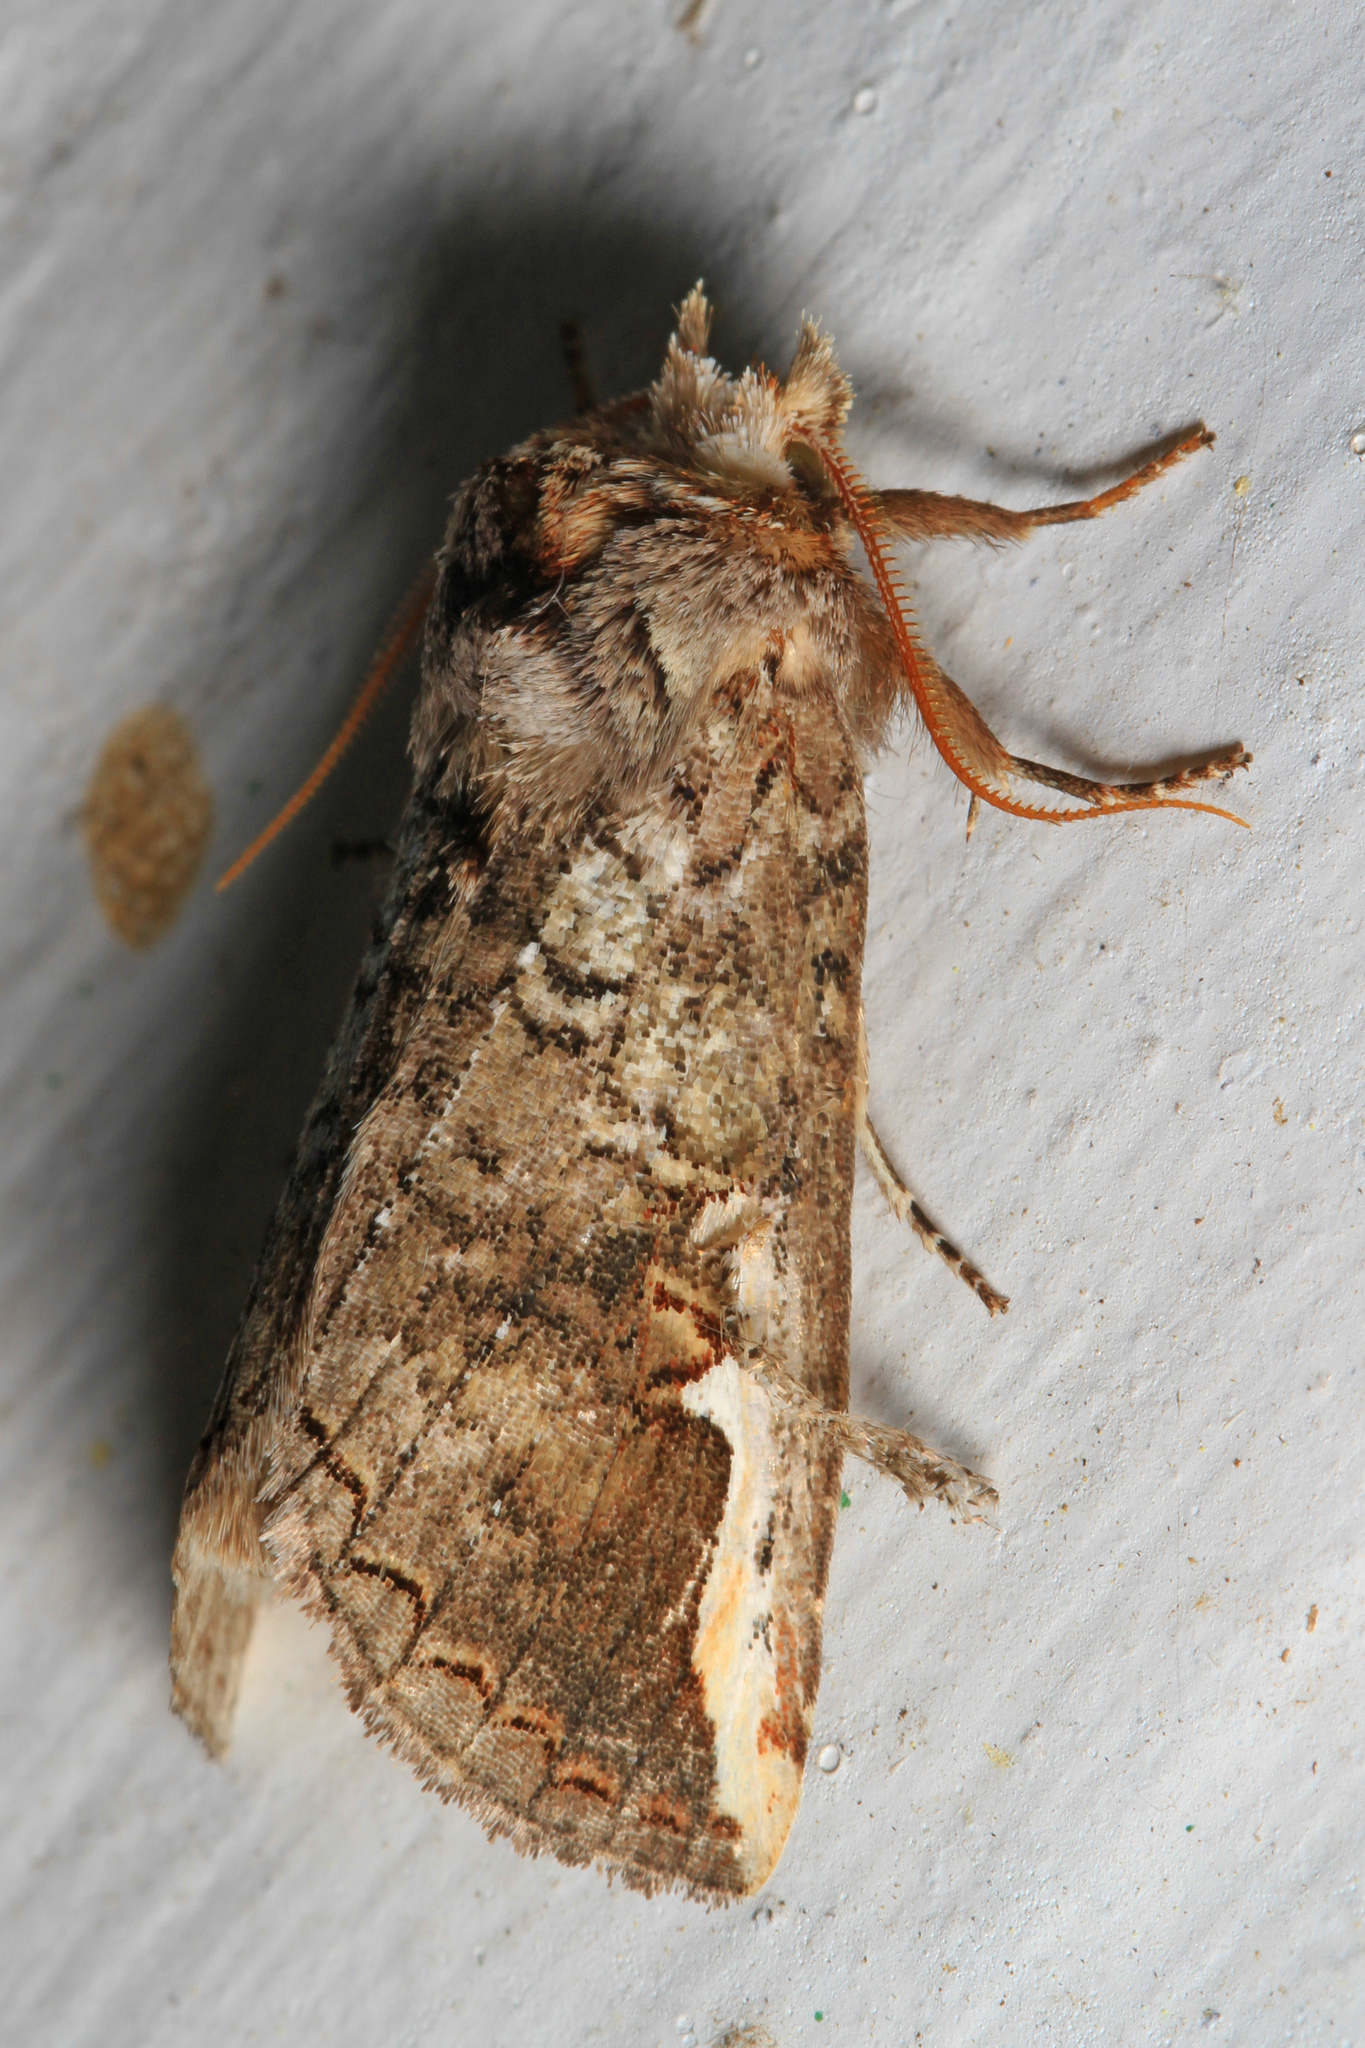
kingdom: Animalia
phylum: Arthropoda
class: Insecta
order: Lepidoptera
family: Notodontidae
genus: Symmerista
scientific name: Symmerista
